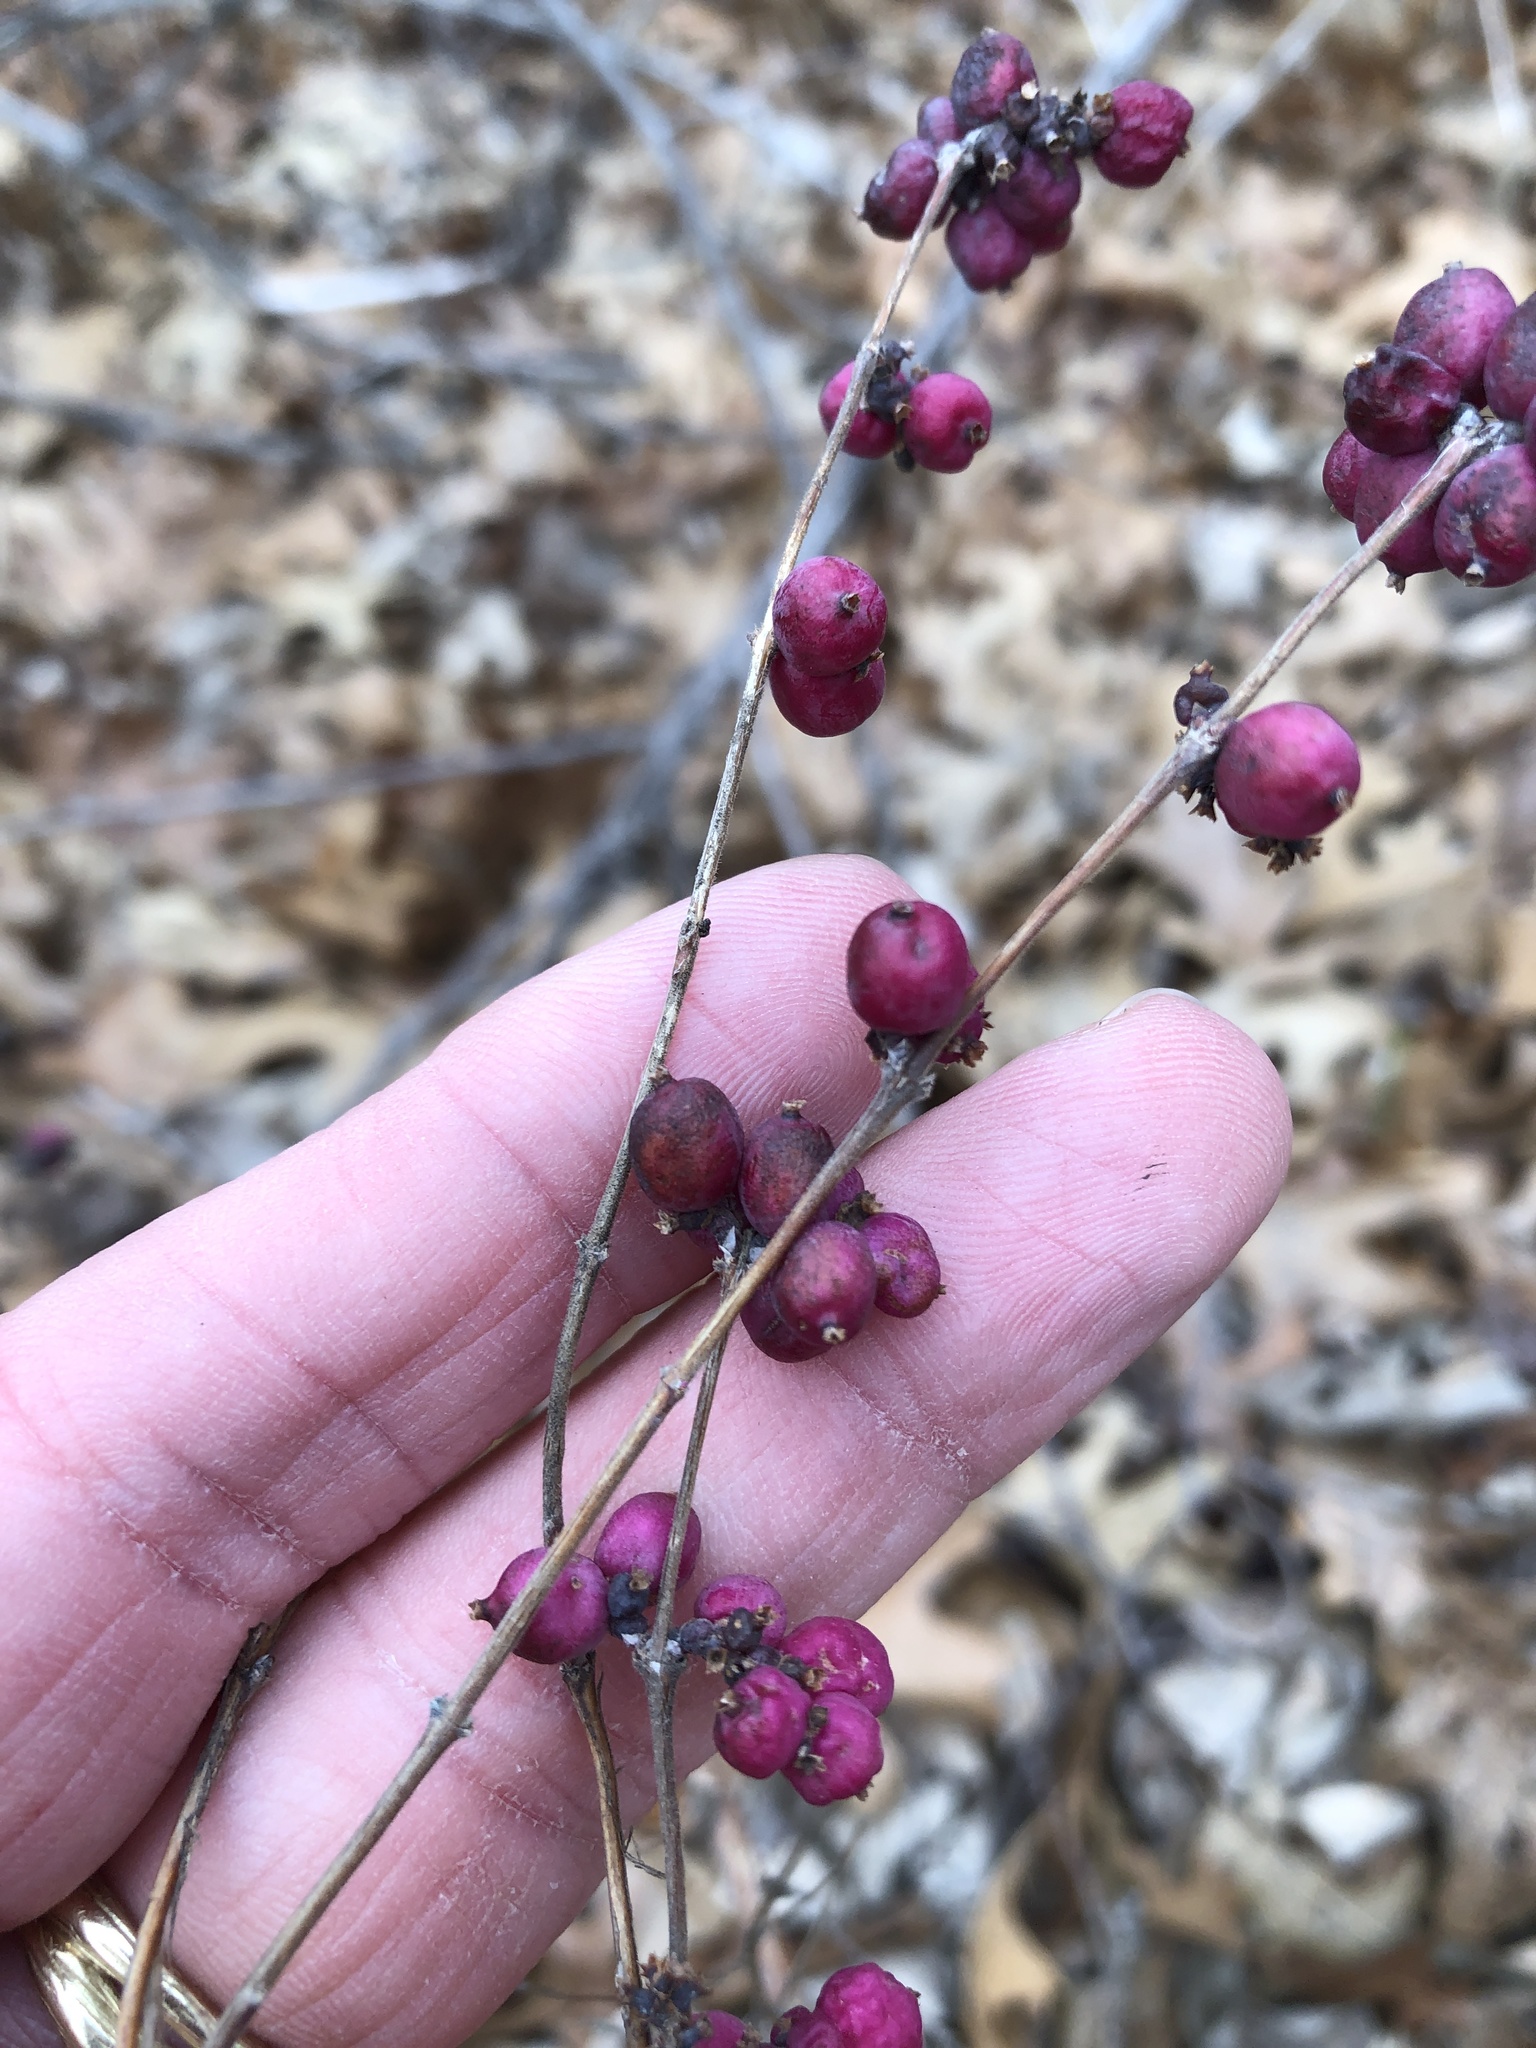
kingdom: Plantae
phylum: Tracheophyta
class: Magnoliopsida
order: Dipsacales
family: Caprifoliaceae
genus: Symphoricarpos
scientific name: Symphoricarpos orbiculatus
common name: Coralberry
